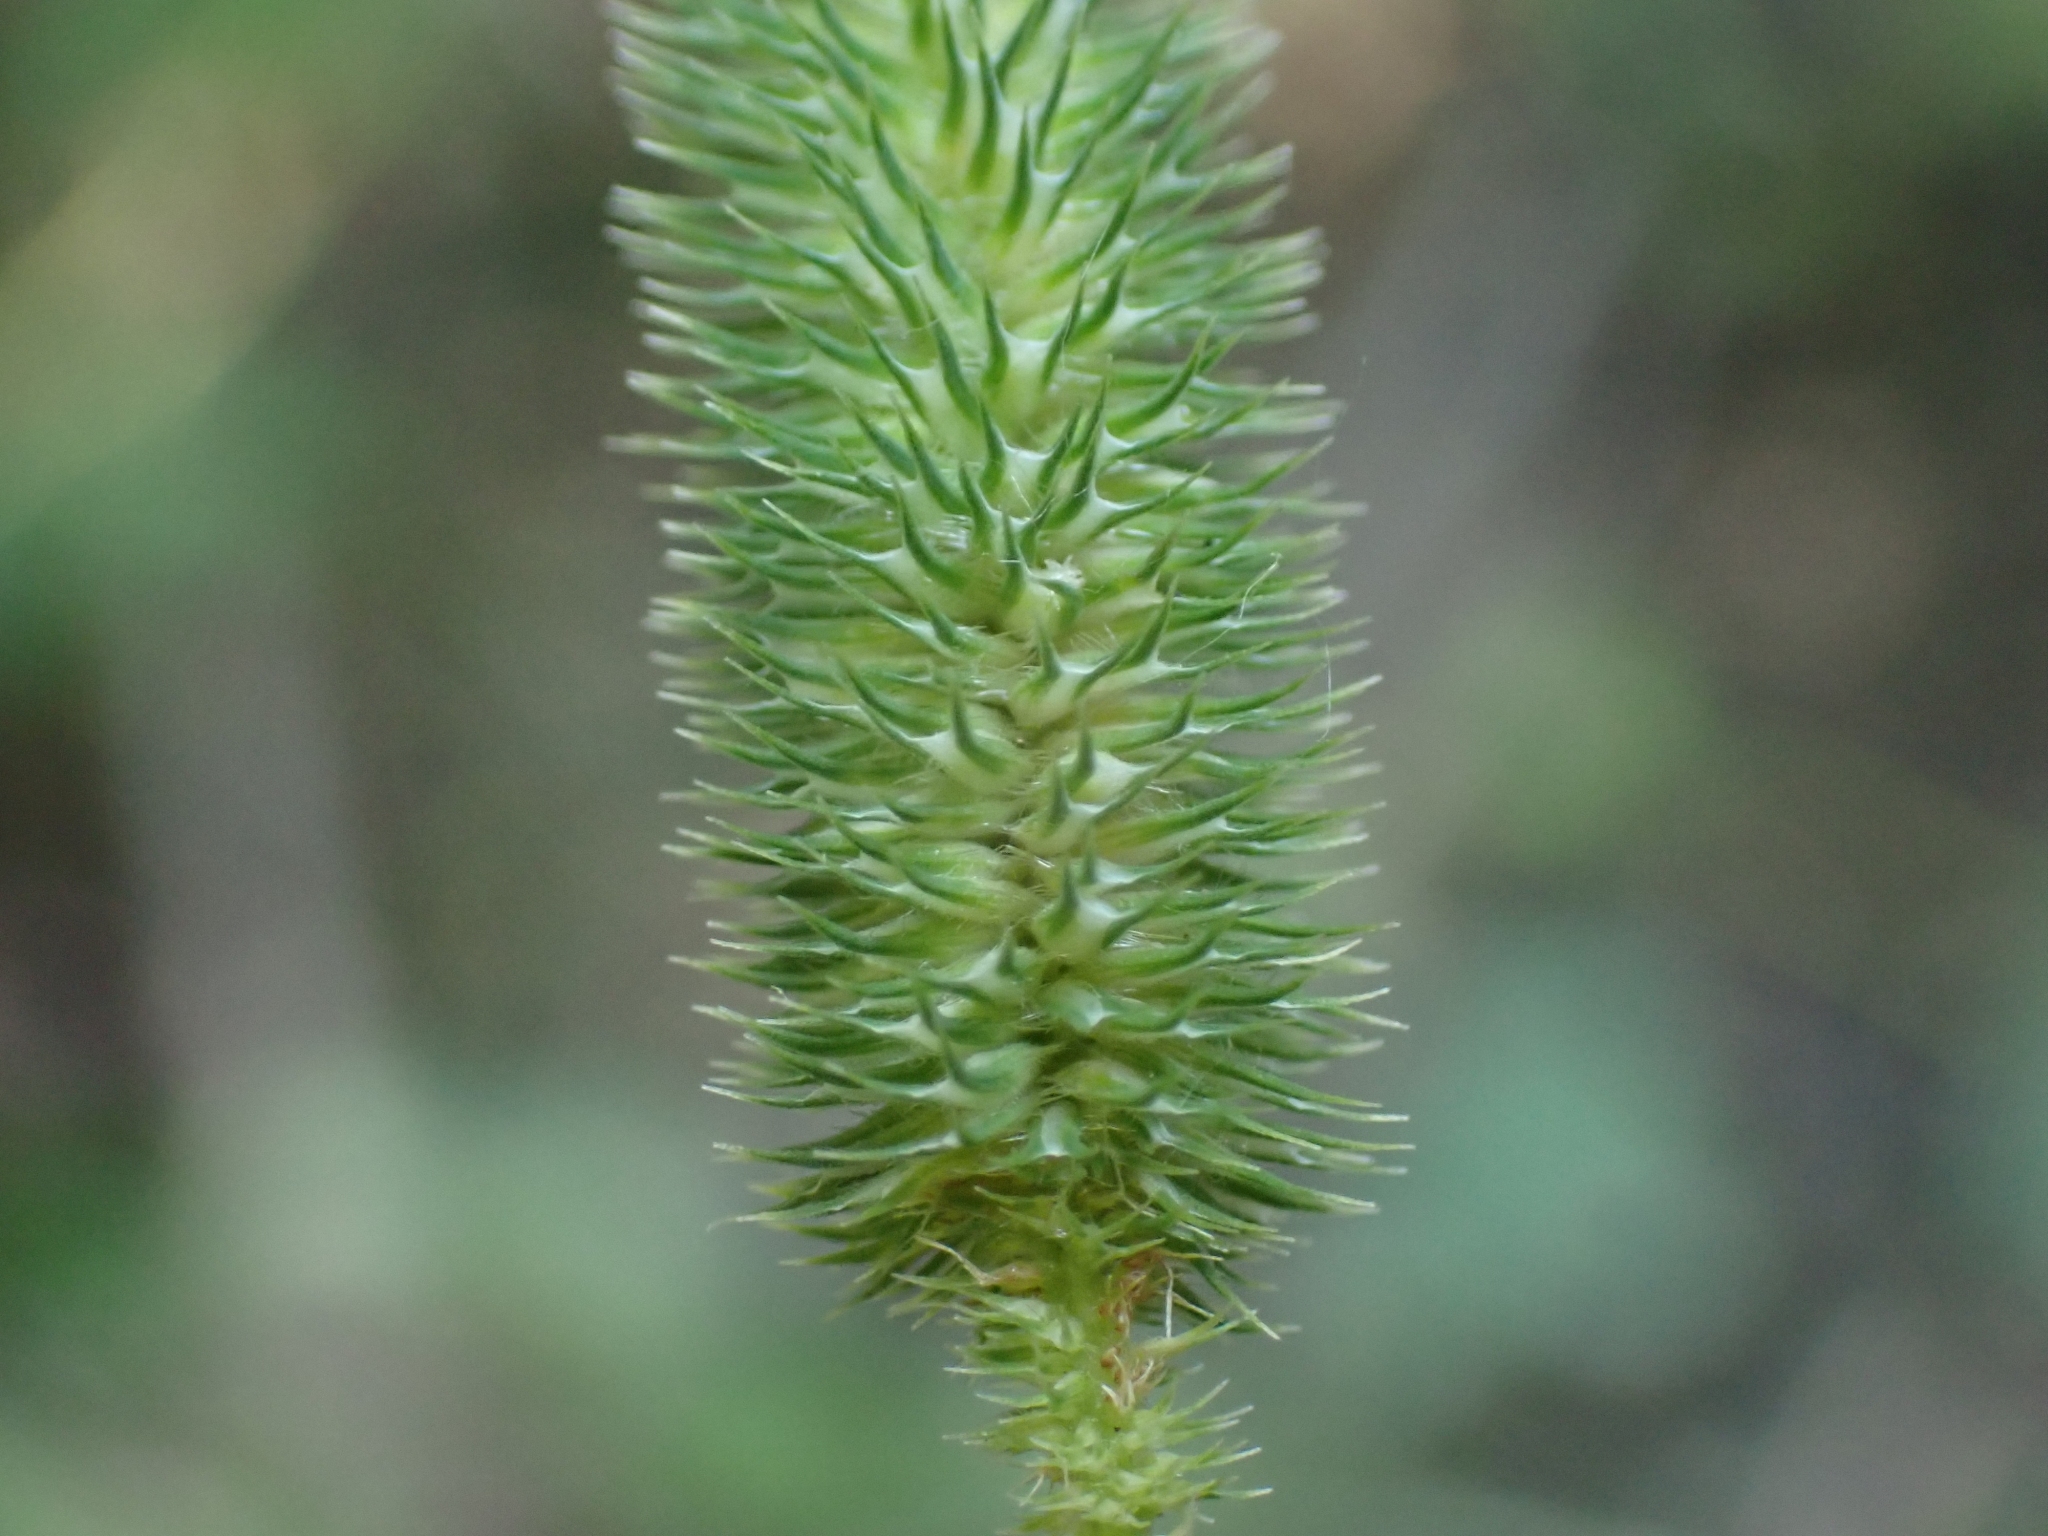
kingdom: Plantae
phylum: Tracheophyta
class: Liliopsida
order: Poales
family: Poaceae
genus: Phleum
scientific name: Phleum pratense
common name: Timothy grass
